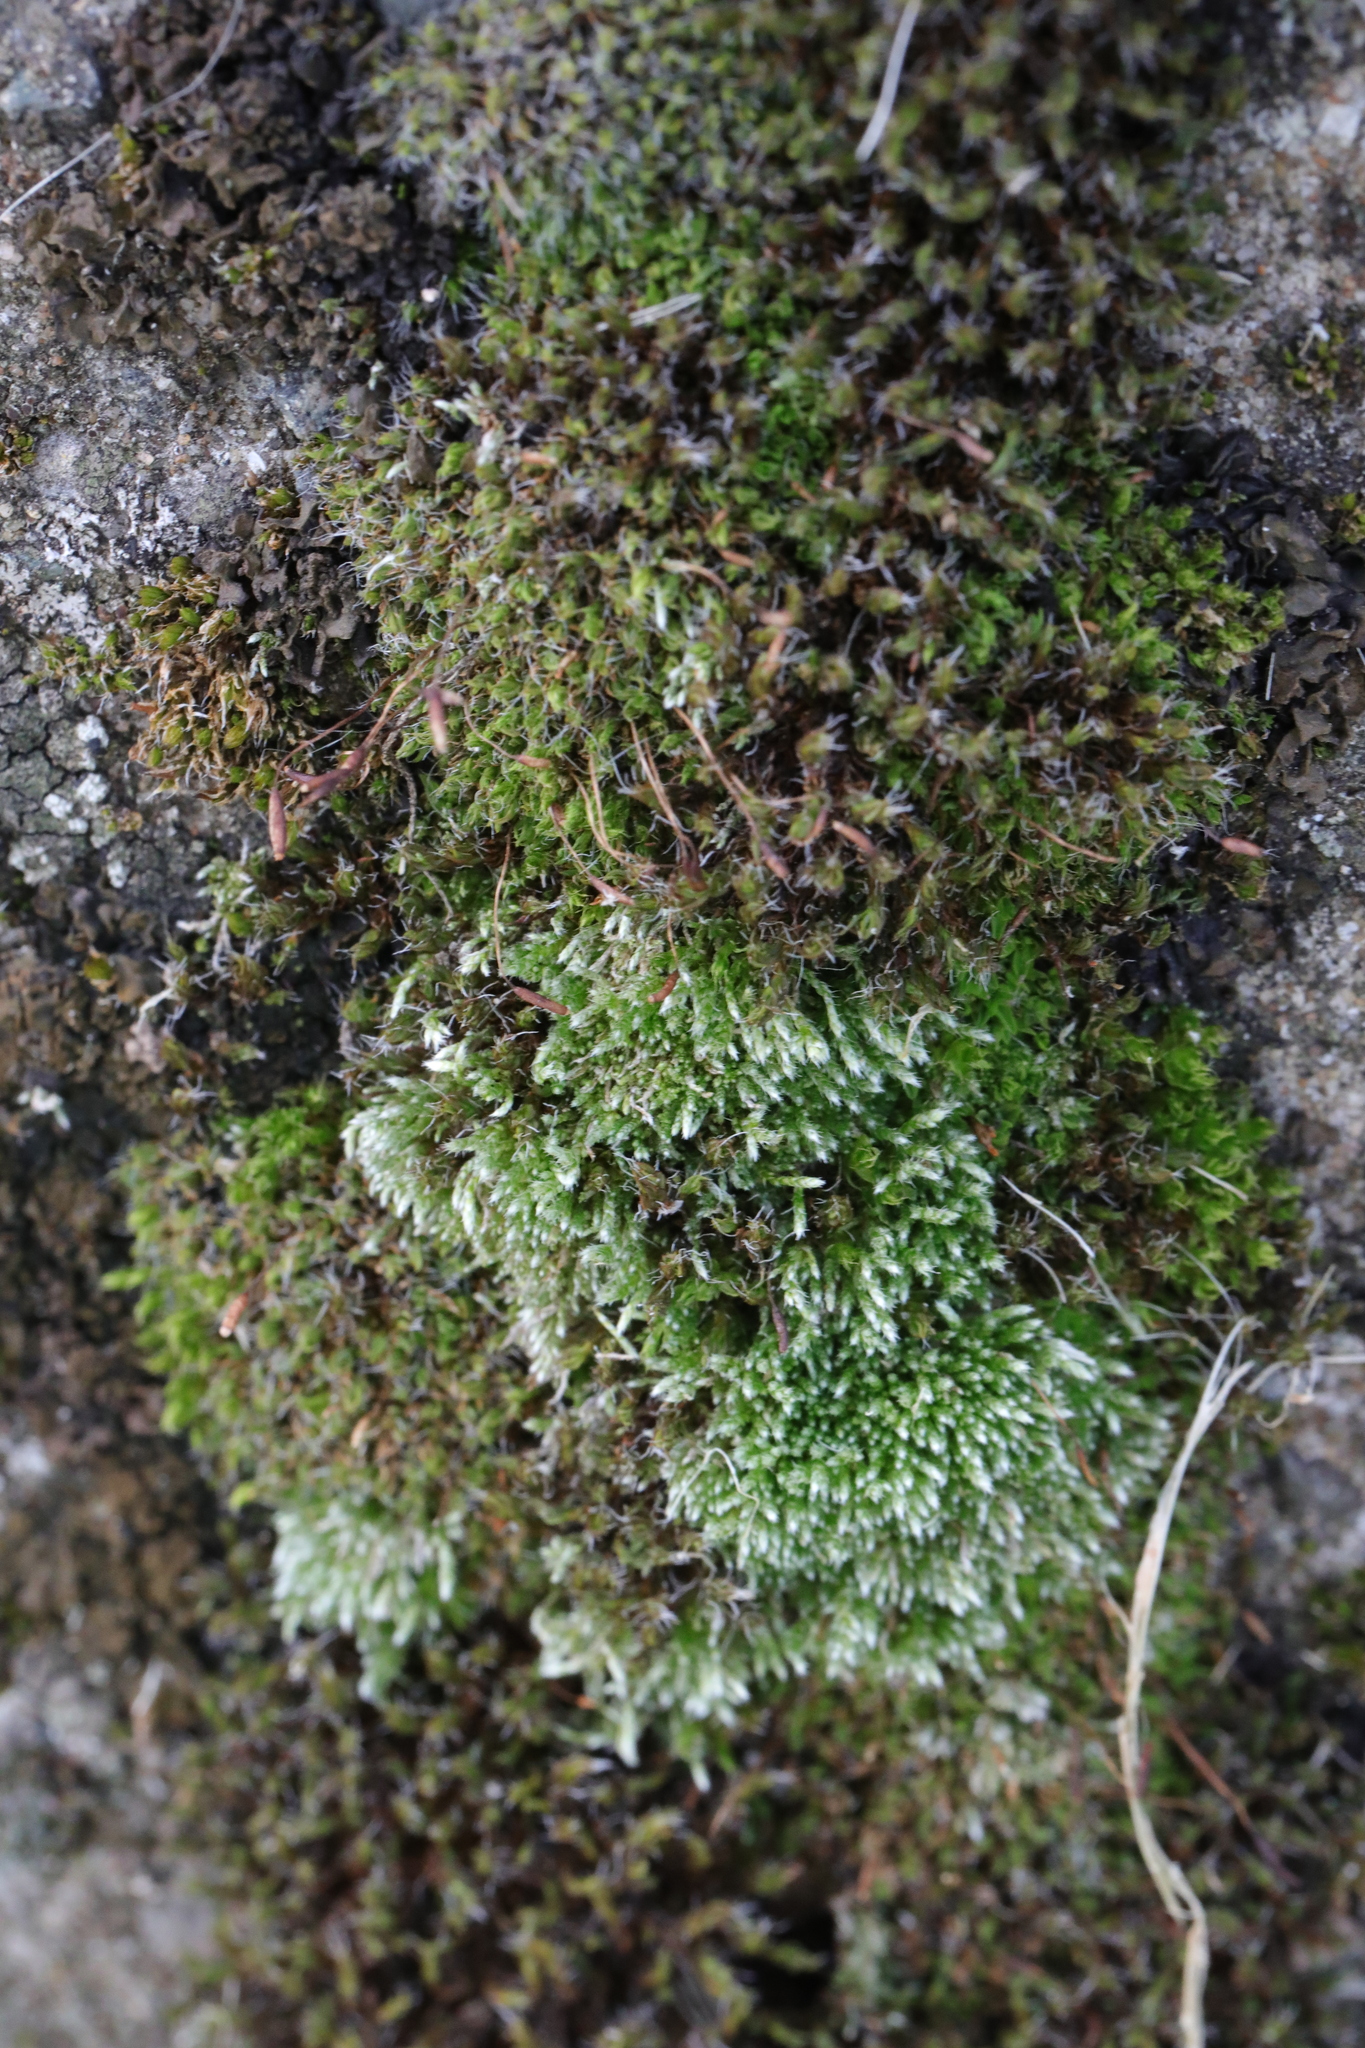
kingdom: Plantae
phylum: Bryophyta
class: Bryopsida
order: Bryales
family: Bryaceae
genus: Bryum
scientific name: Bryum argenteum
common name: Silver-moss
